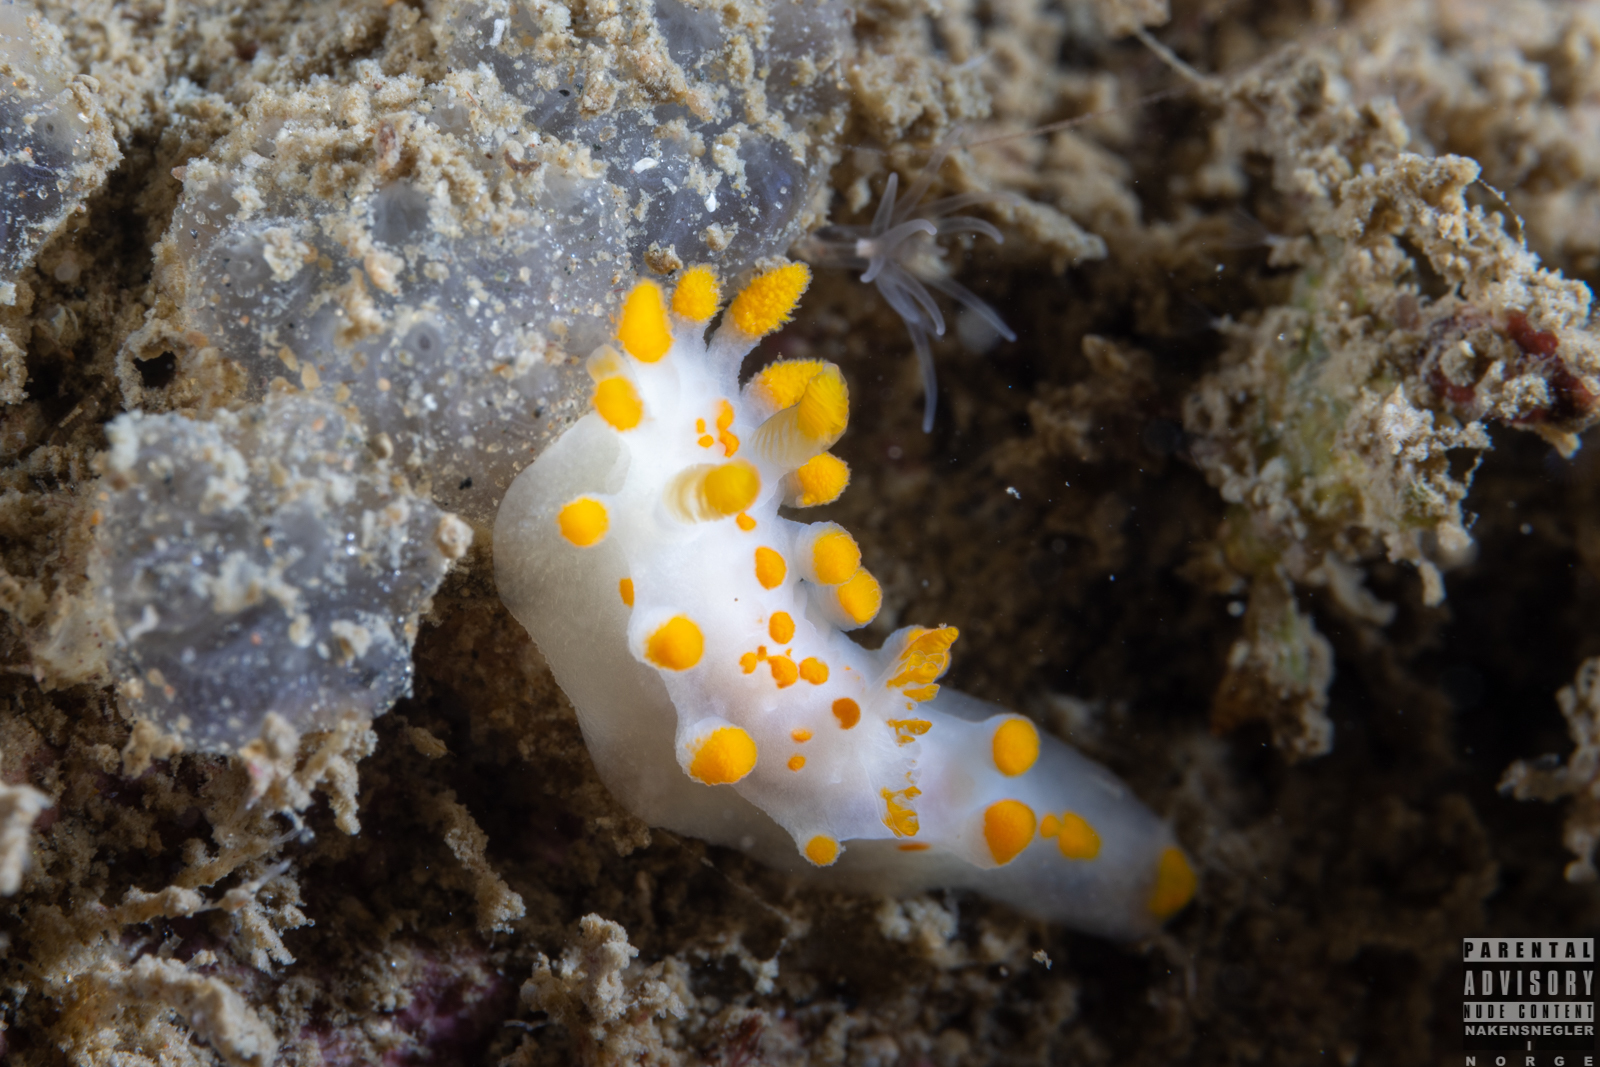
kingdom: Animalia
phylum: Mollusca
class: Gastropoda
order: Nudibranchia
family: Polyceridae
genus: Limacia
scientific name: Limacia clavigera
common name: Orange-clubbed sea slug
